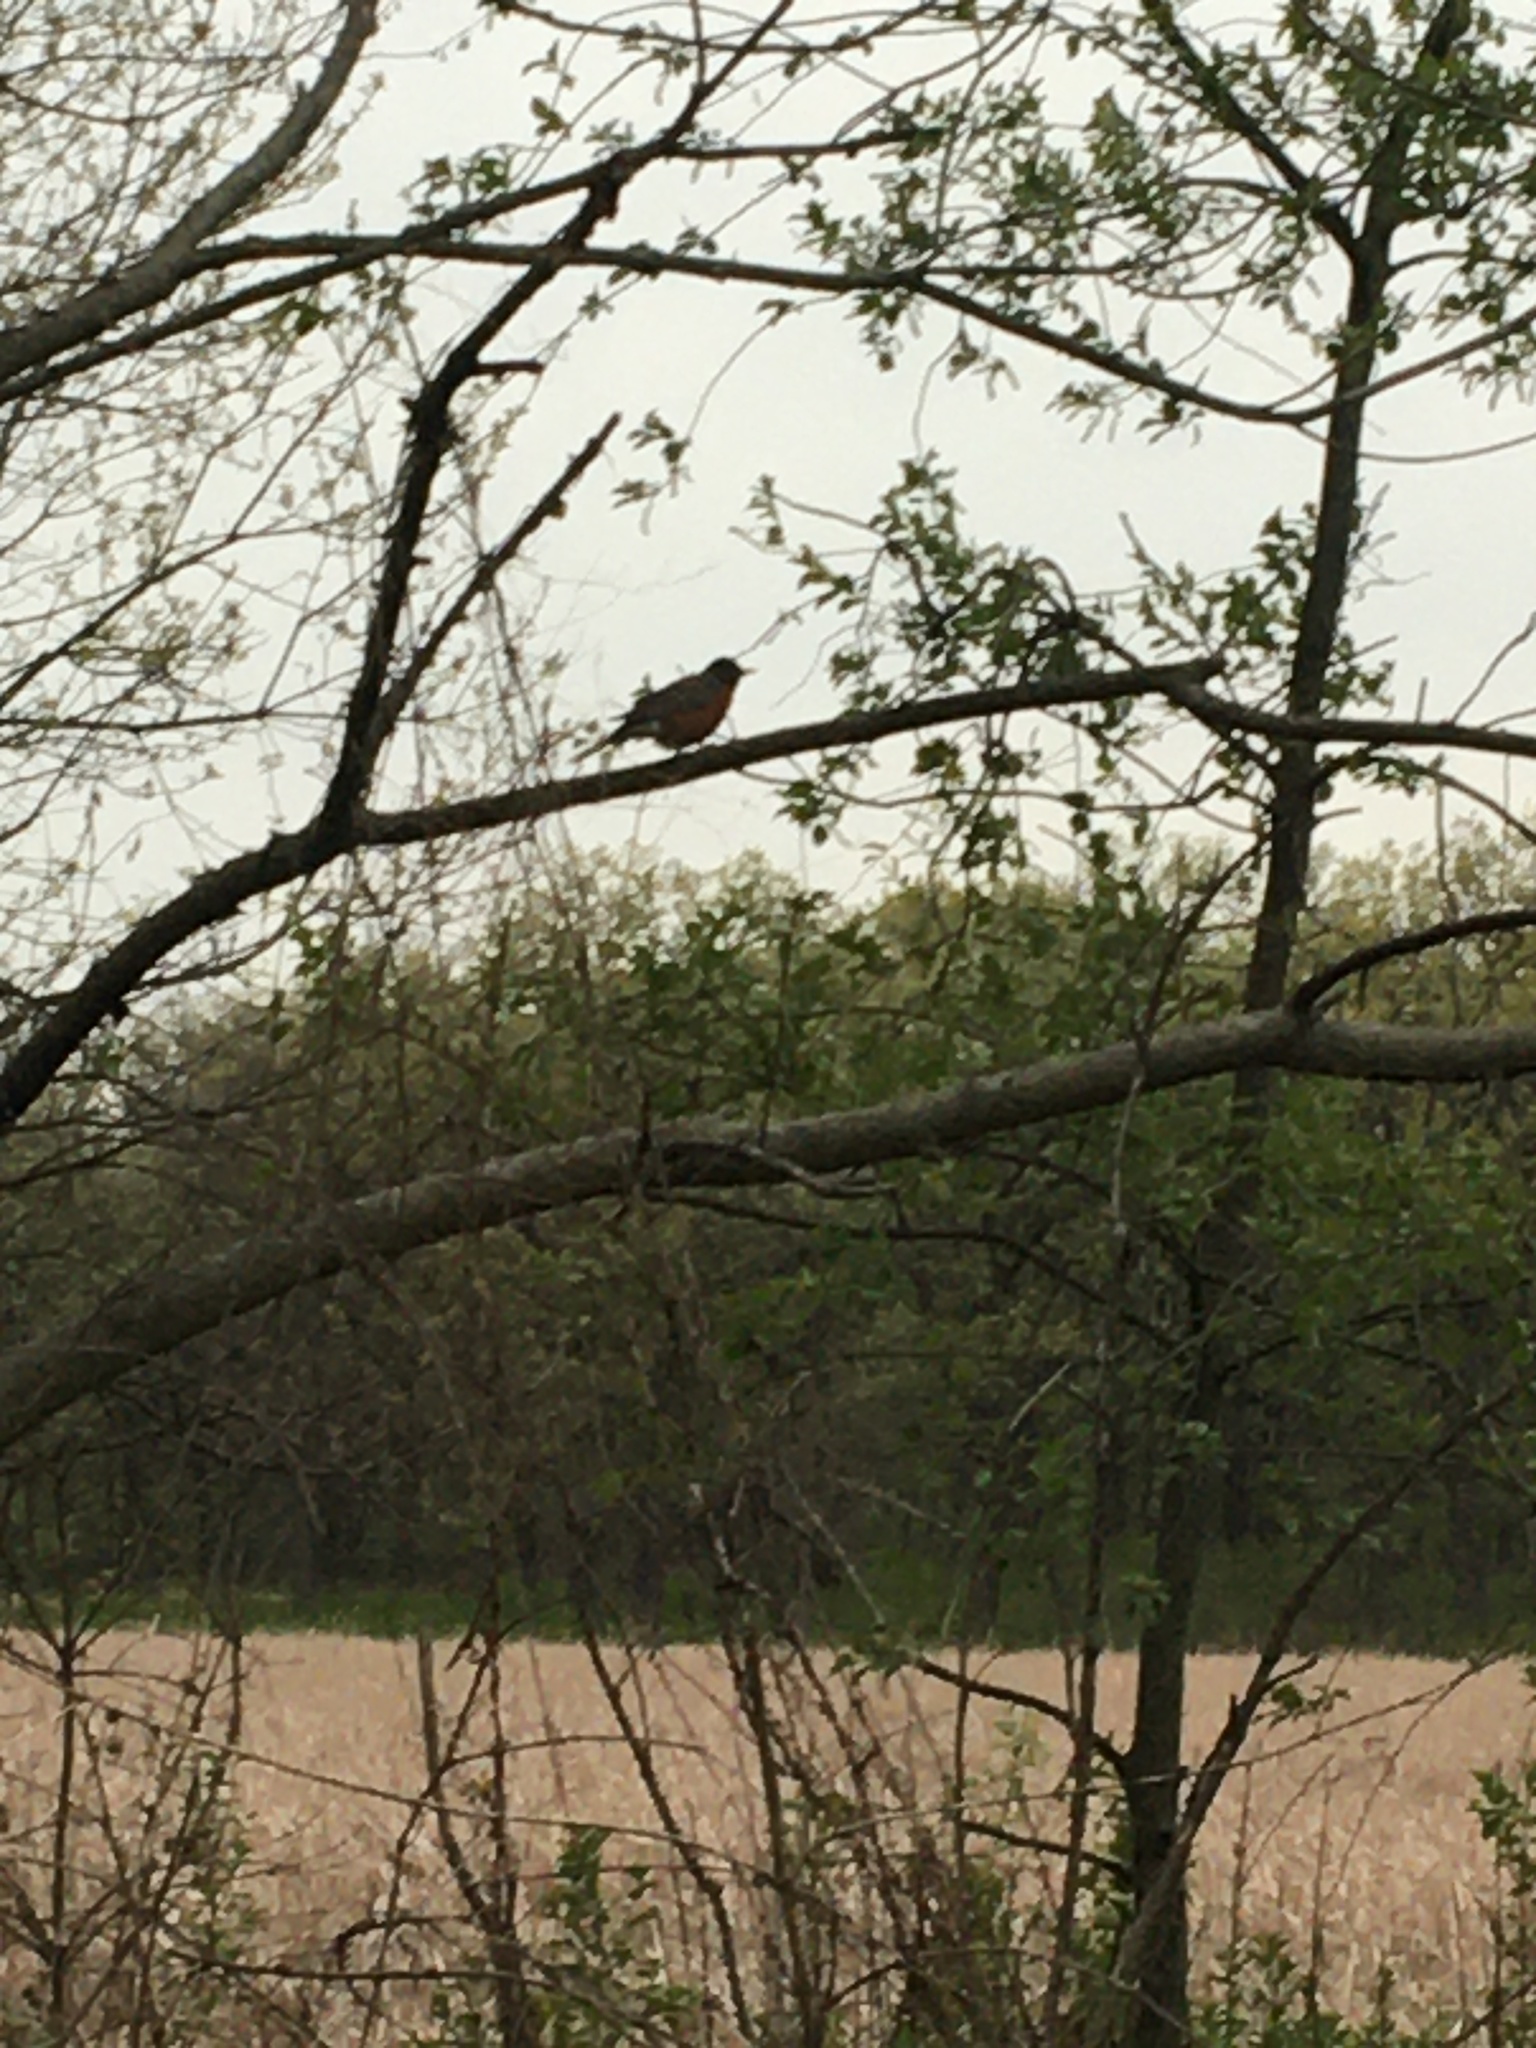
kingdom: Animalia
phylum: Chordata
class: Aves
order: Passeriformes
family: Turdidae
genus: Turdus
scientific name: Turdus migratorius
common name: American robin
